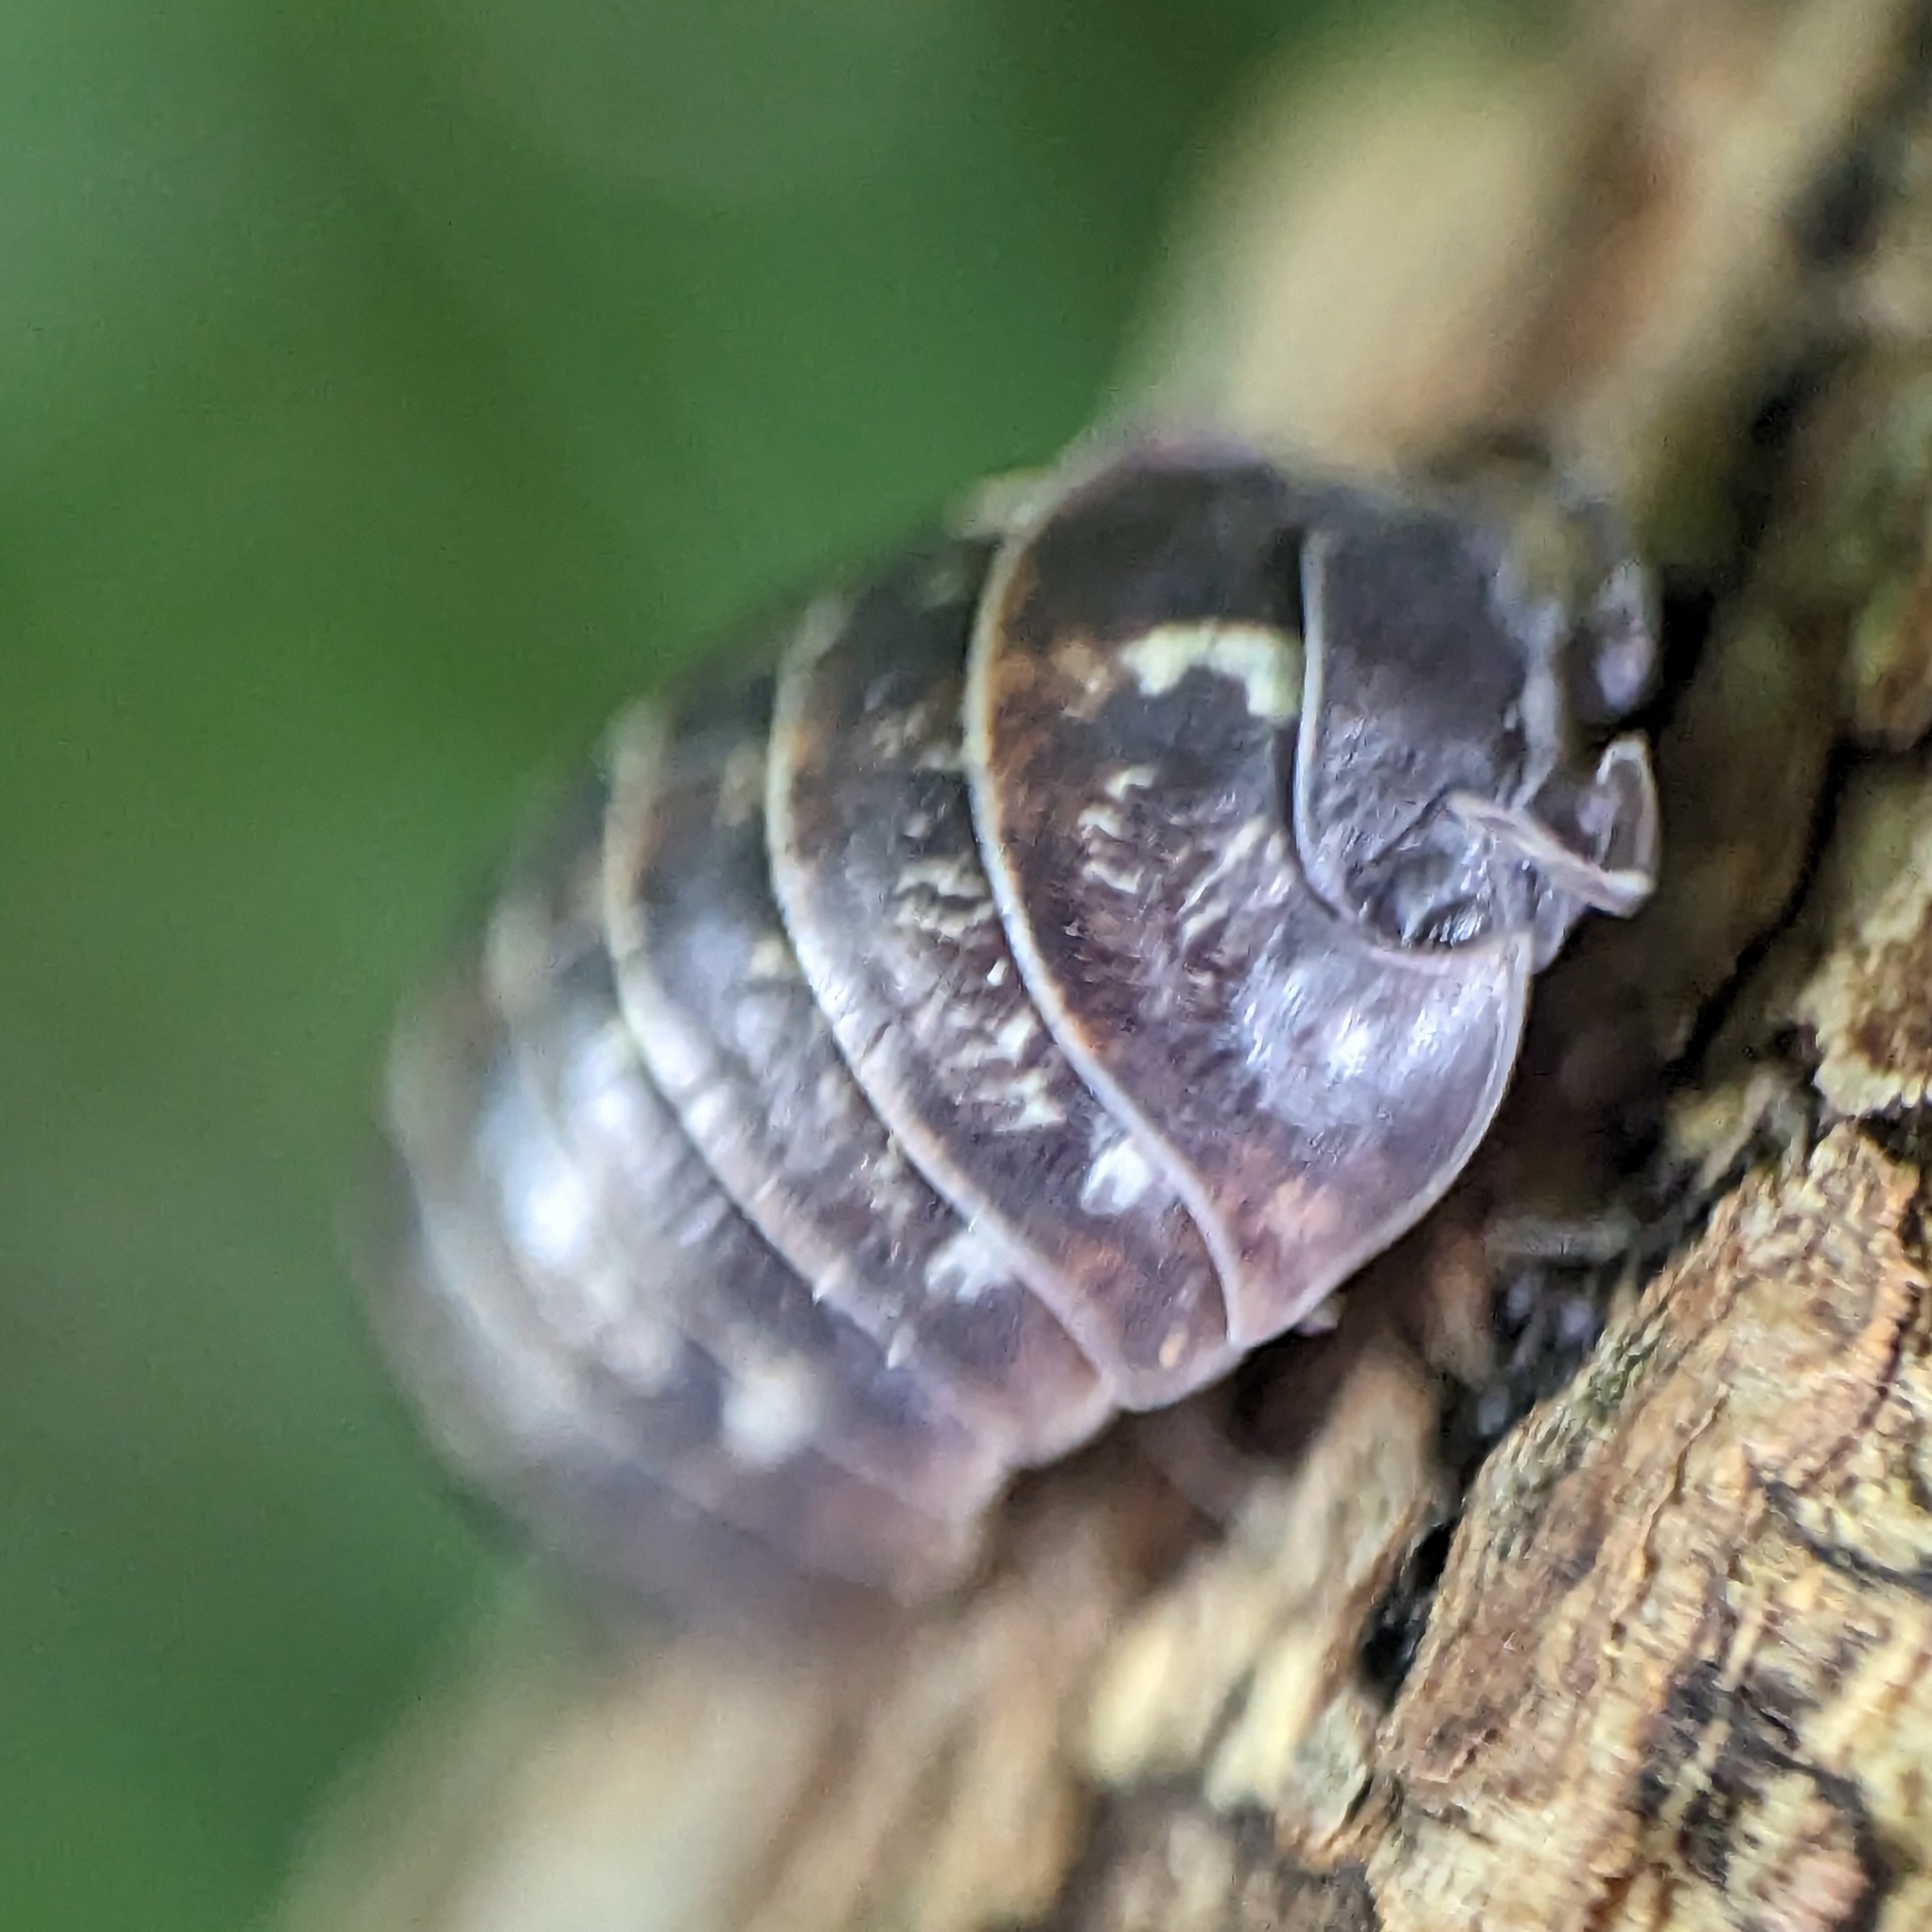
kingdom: Animalia
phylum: Arthropoda
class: Malacostraca
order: Isopoda
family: Armadillidiidae
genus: Armadillidium
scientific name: Armadillidium vulgare
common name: Common pill woodlouse
